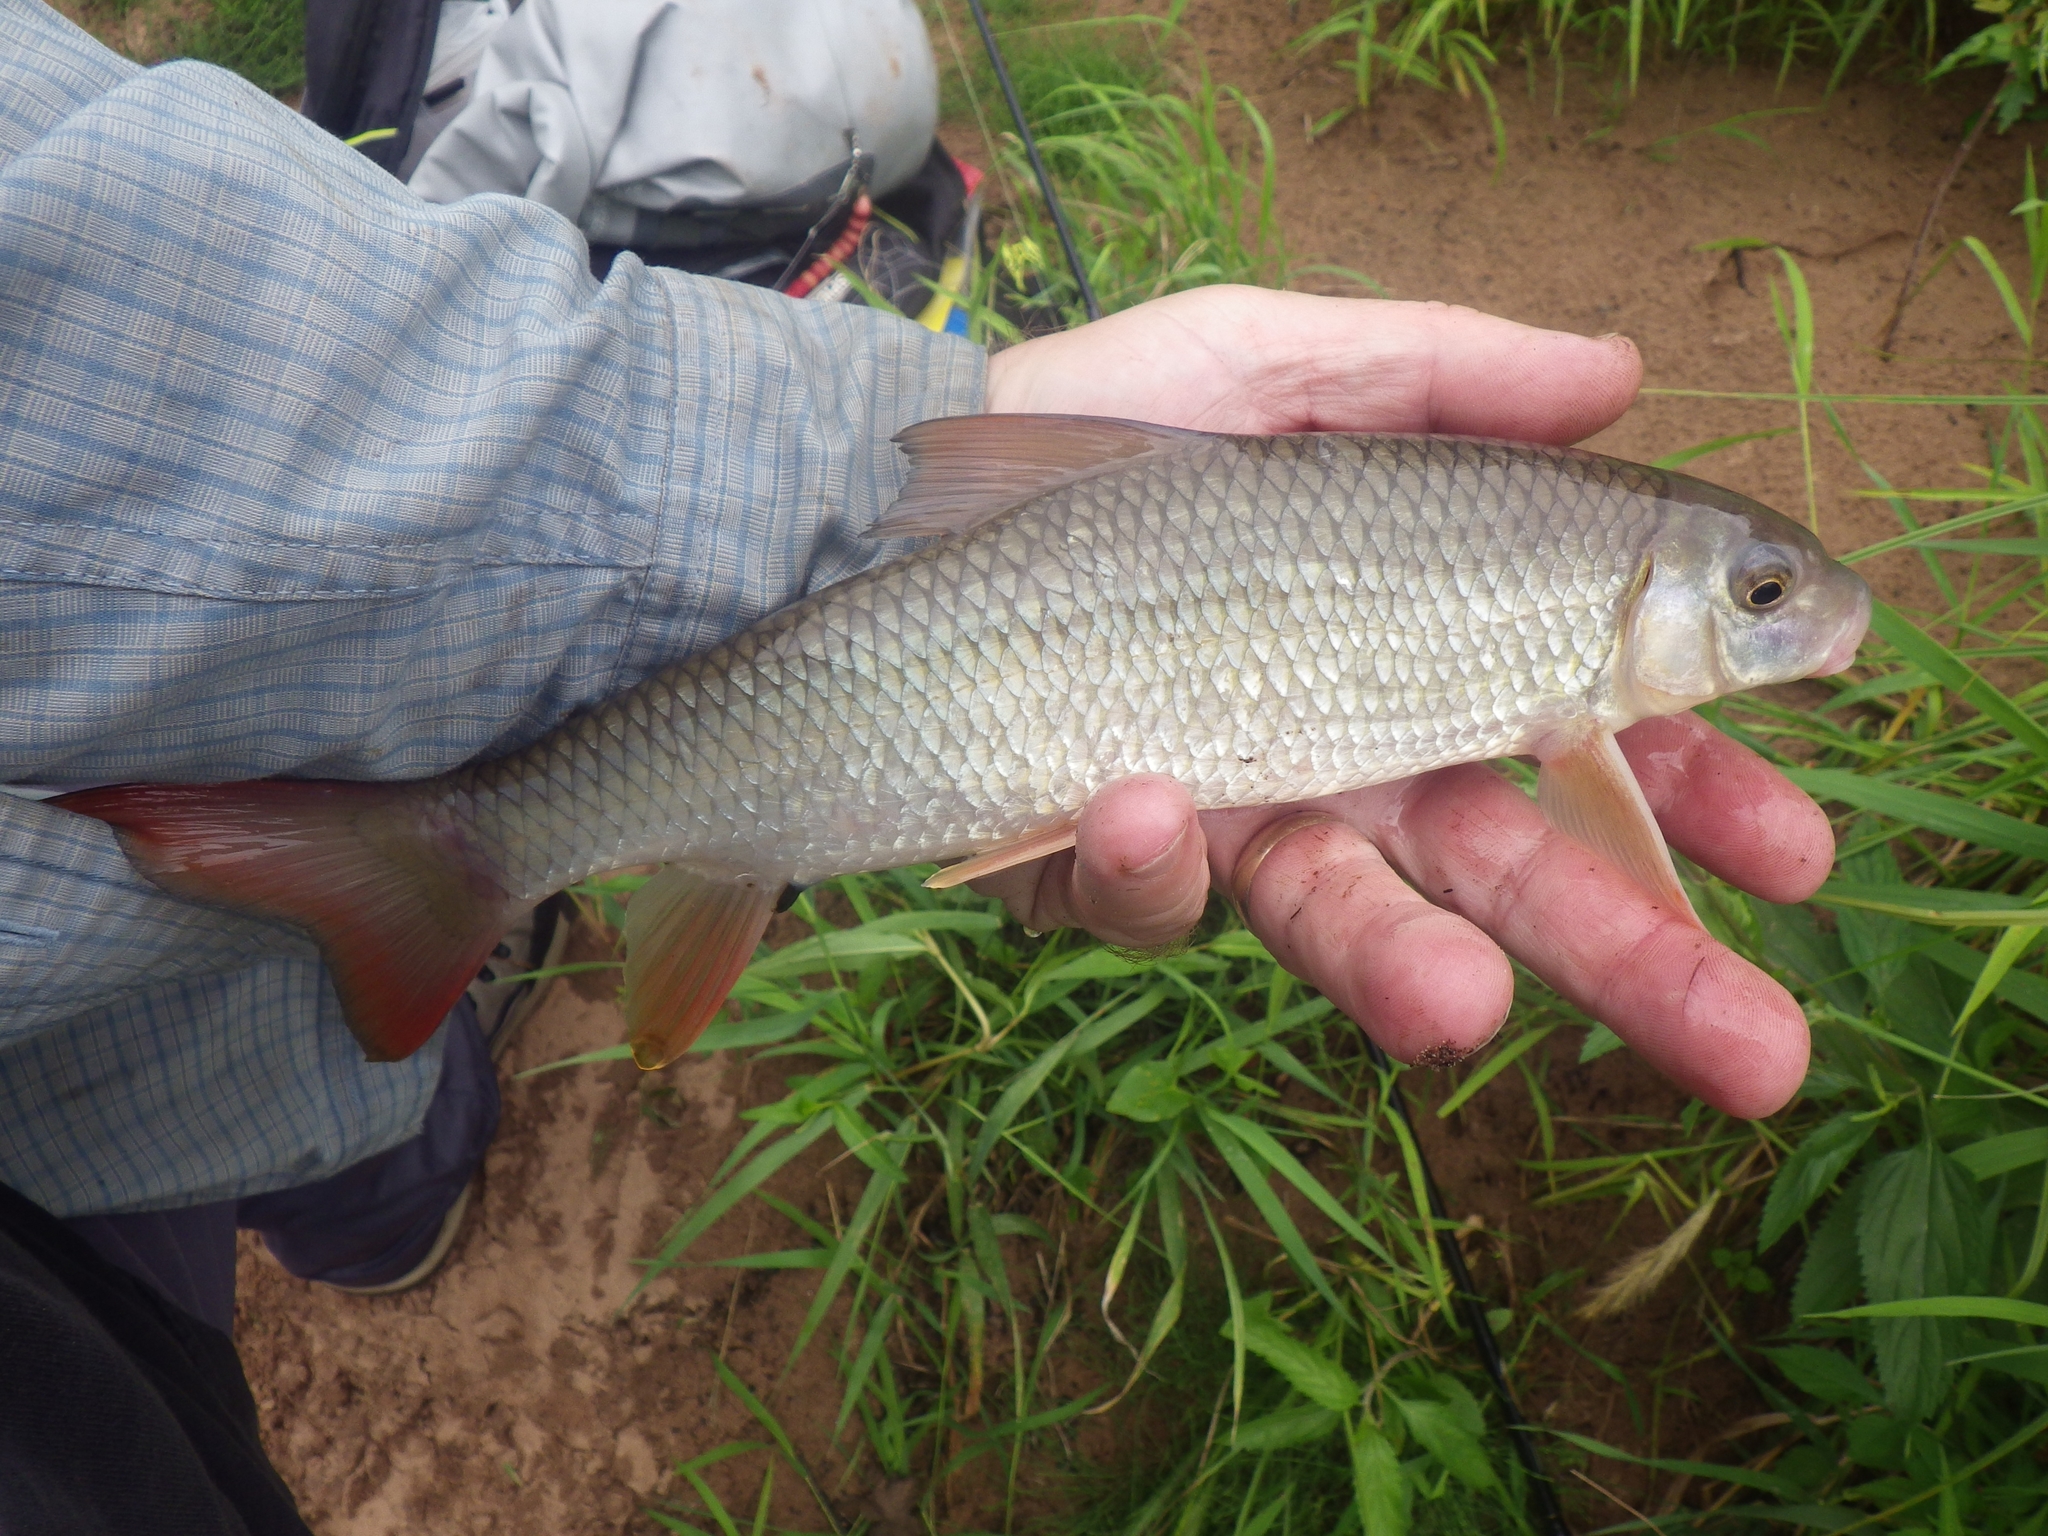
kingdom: Animalia
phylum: Chordata
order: Cypriniformes
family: Catostomidae
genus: Moxostoma
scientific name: Moxostoma macrolepidotum
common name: Shorthead redhorse
